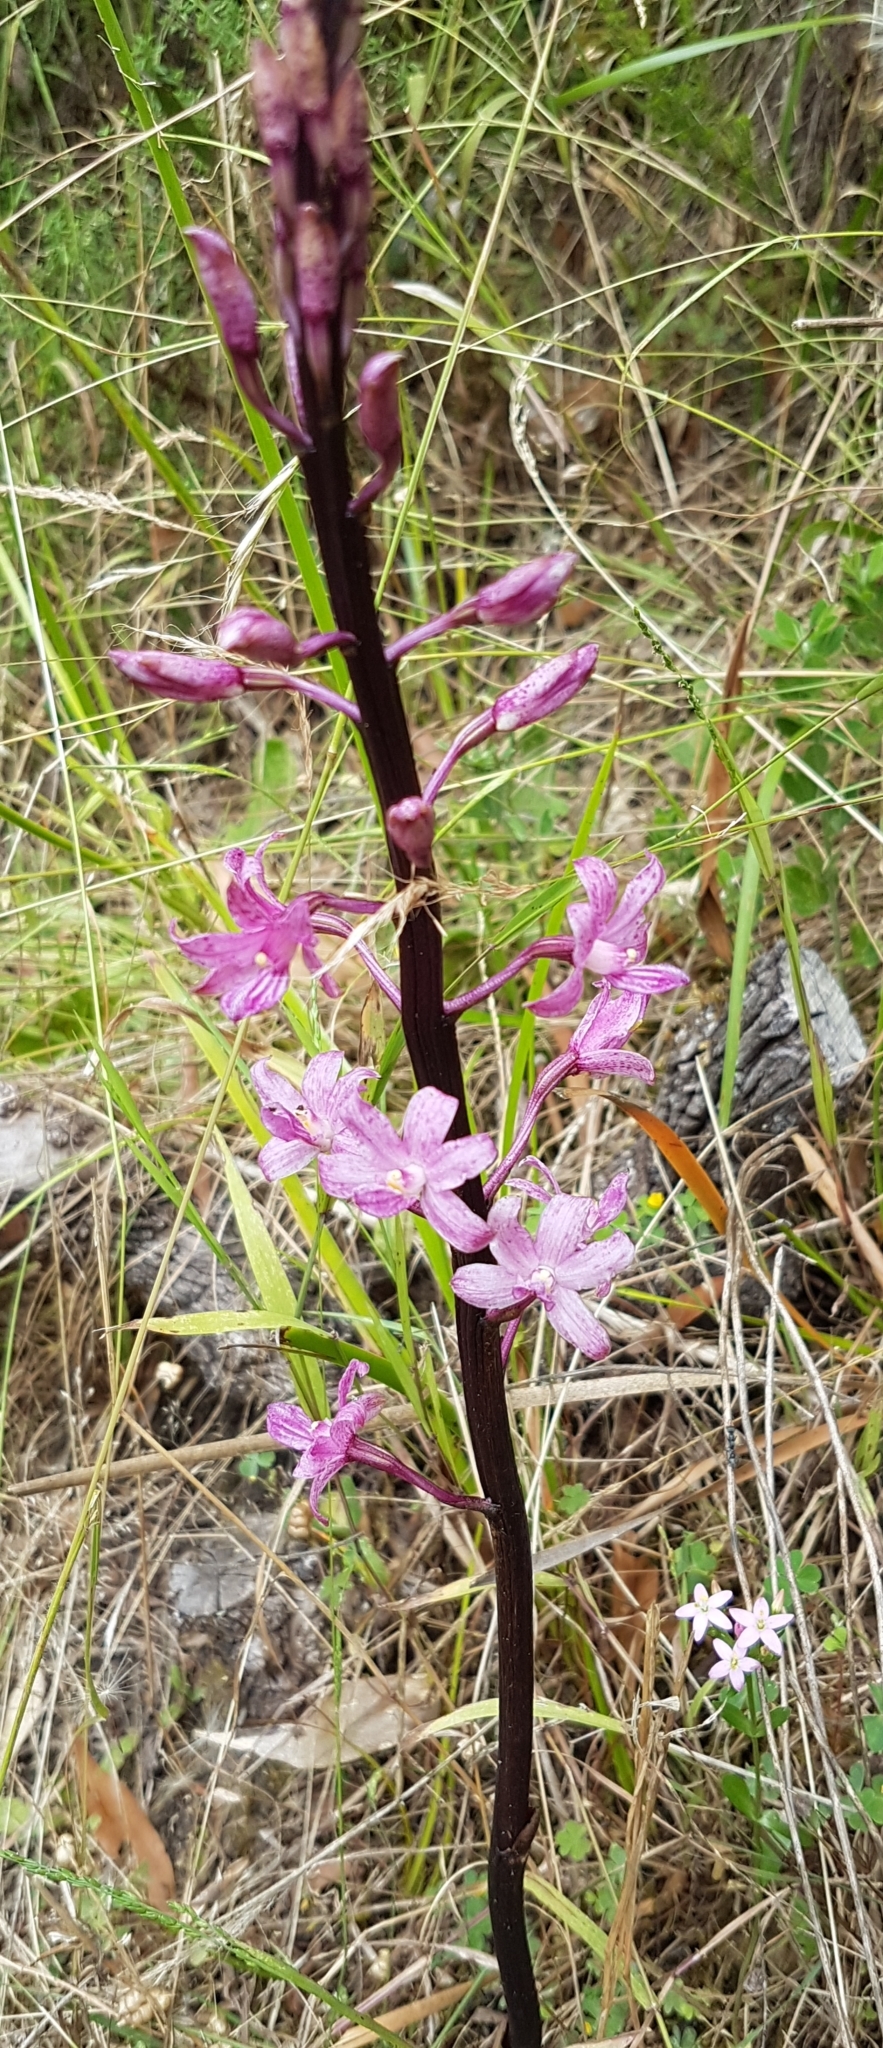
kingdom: Plantae
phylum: Tracheophyta
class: Liliopsida
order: Asparagales
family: Orchidaceae
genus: Dipodium
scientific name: Dipodium roseum
